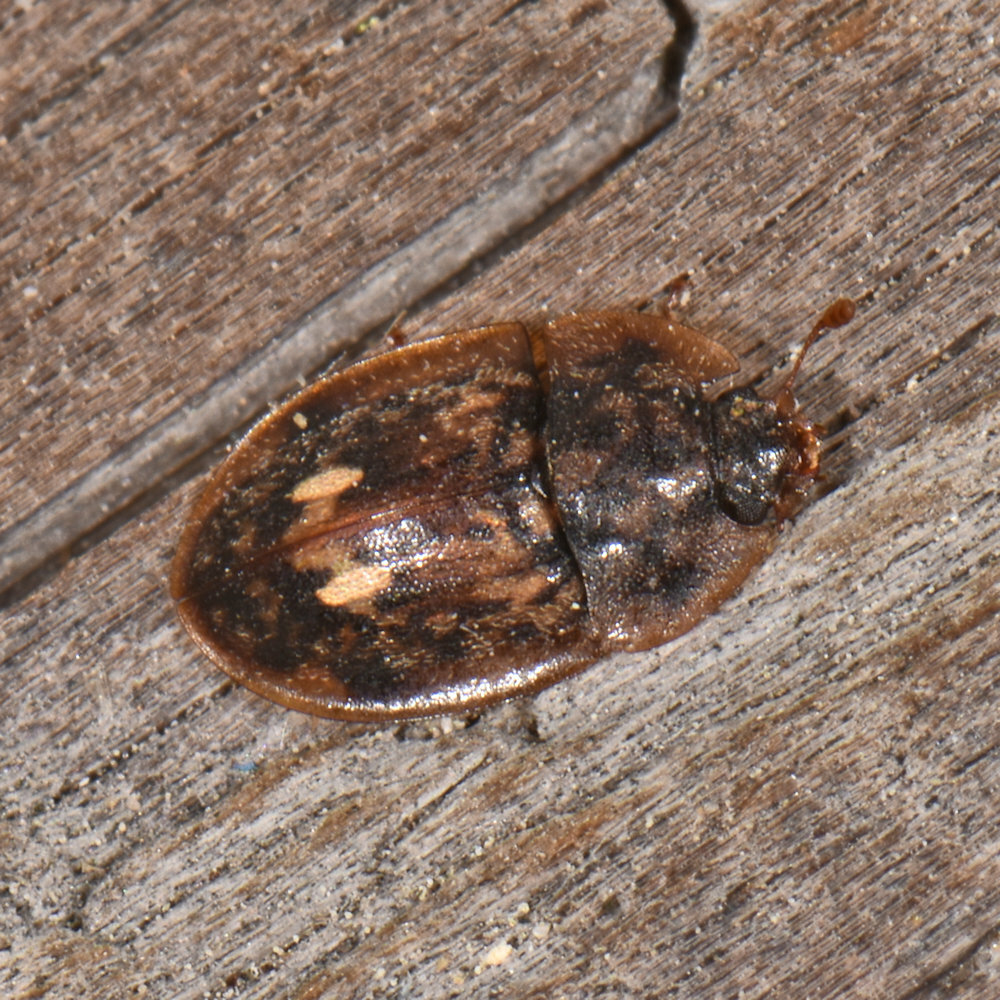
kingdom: Animalia
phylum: Arthropoda
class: Insecta
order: Coleoptera
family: Nitidulidae
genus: Lobiopa
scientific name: Lobiopa undulata
